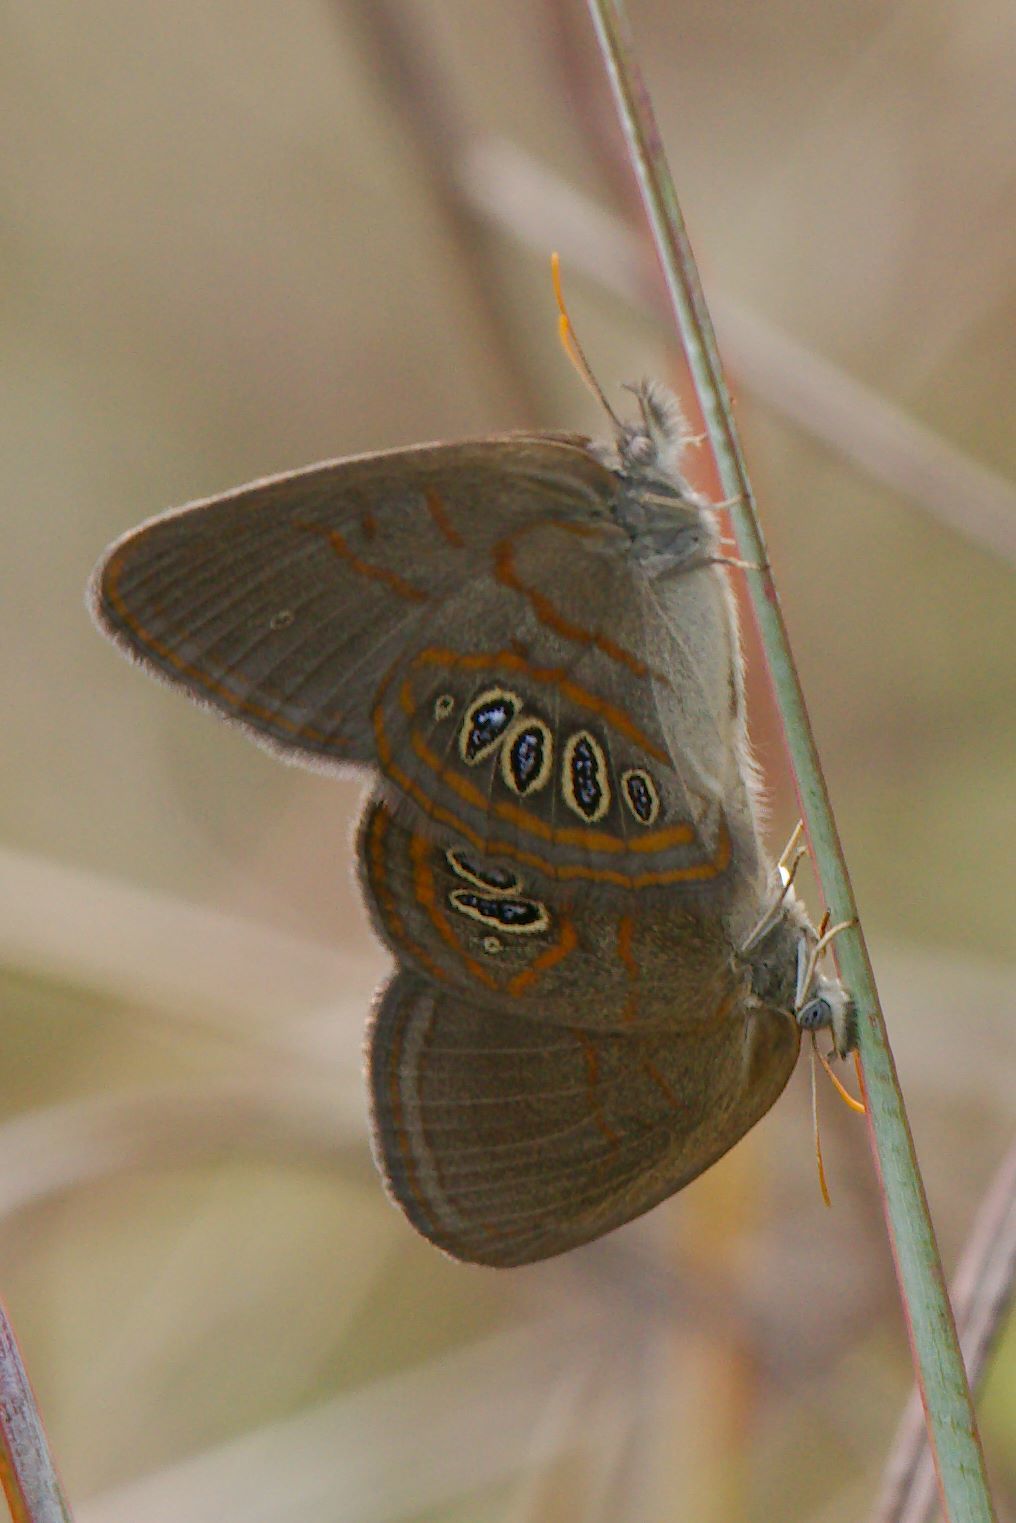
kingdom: Animalia
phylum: Arthropoda
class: Insecta
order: Lepidoptera
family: Nymphalidae
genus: Euptychia
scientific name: Euptychia phocion
